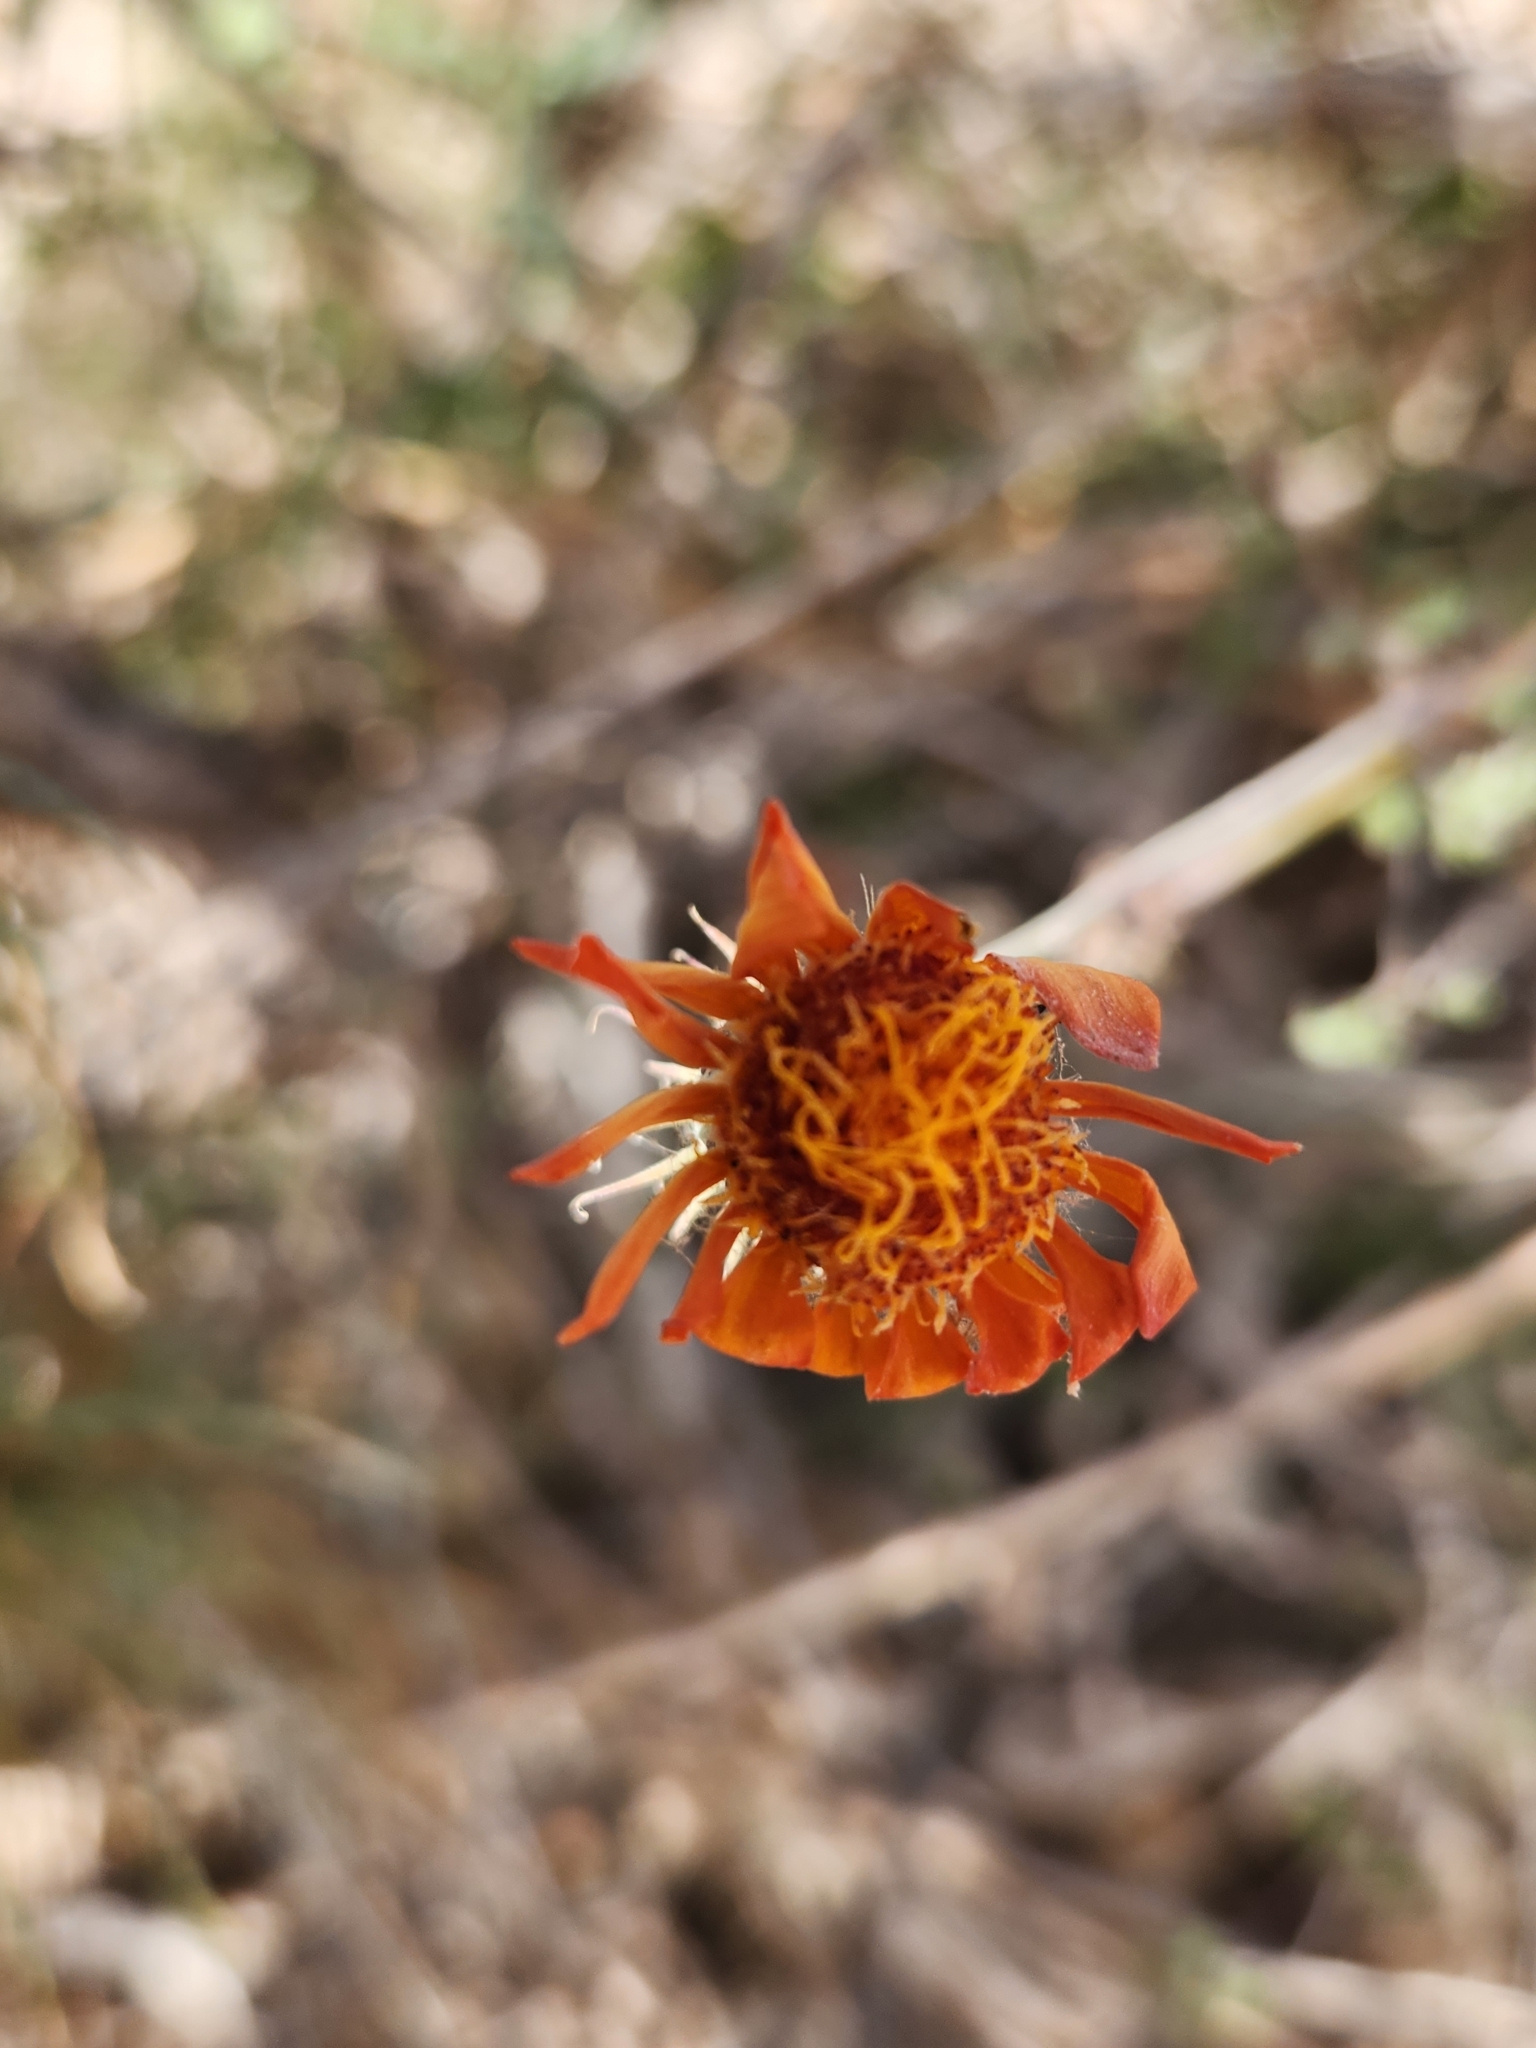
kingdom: Plantae
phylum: Tracheophyta
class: Magnoliopsida
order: Asterales
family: Asteraceae
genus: Adenophyllum
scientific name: Adenophyllum speciosum
